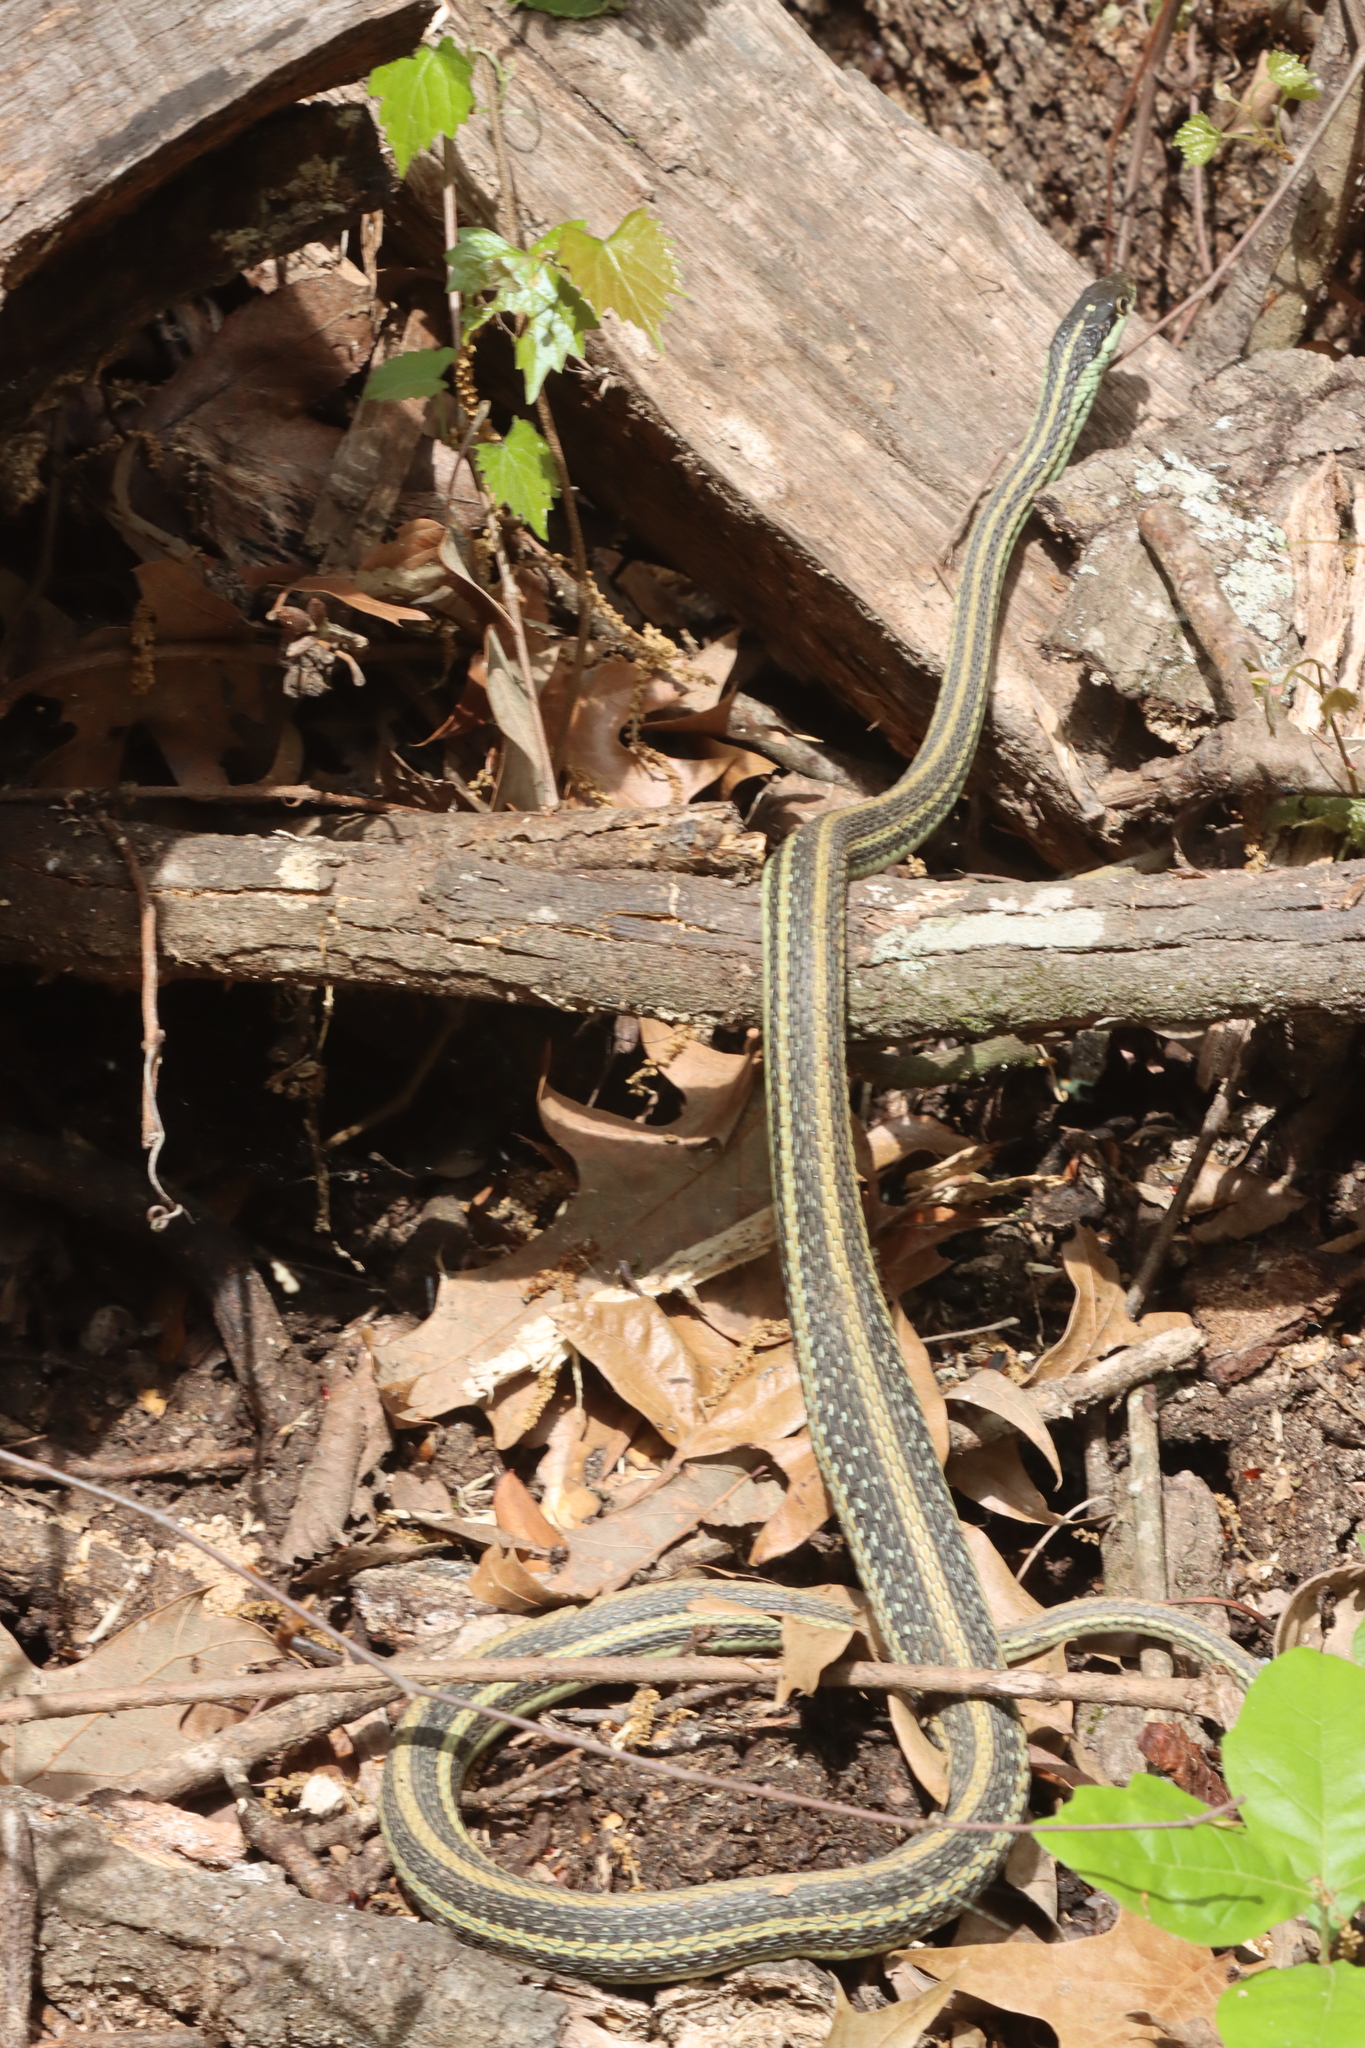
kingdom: Animalia
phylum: Chordata
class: Squamata
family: Colubridae
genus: Thamnophis
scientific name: Thamnophis proximus
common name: Western ribbon snake
